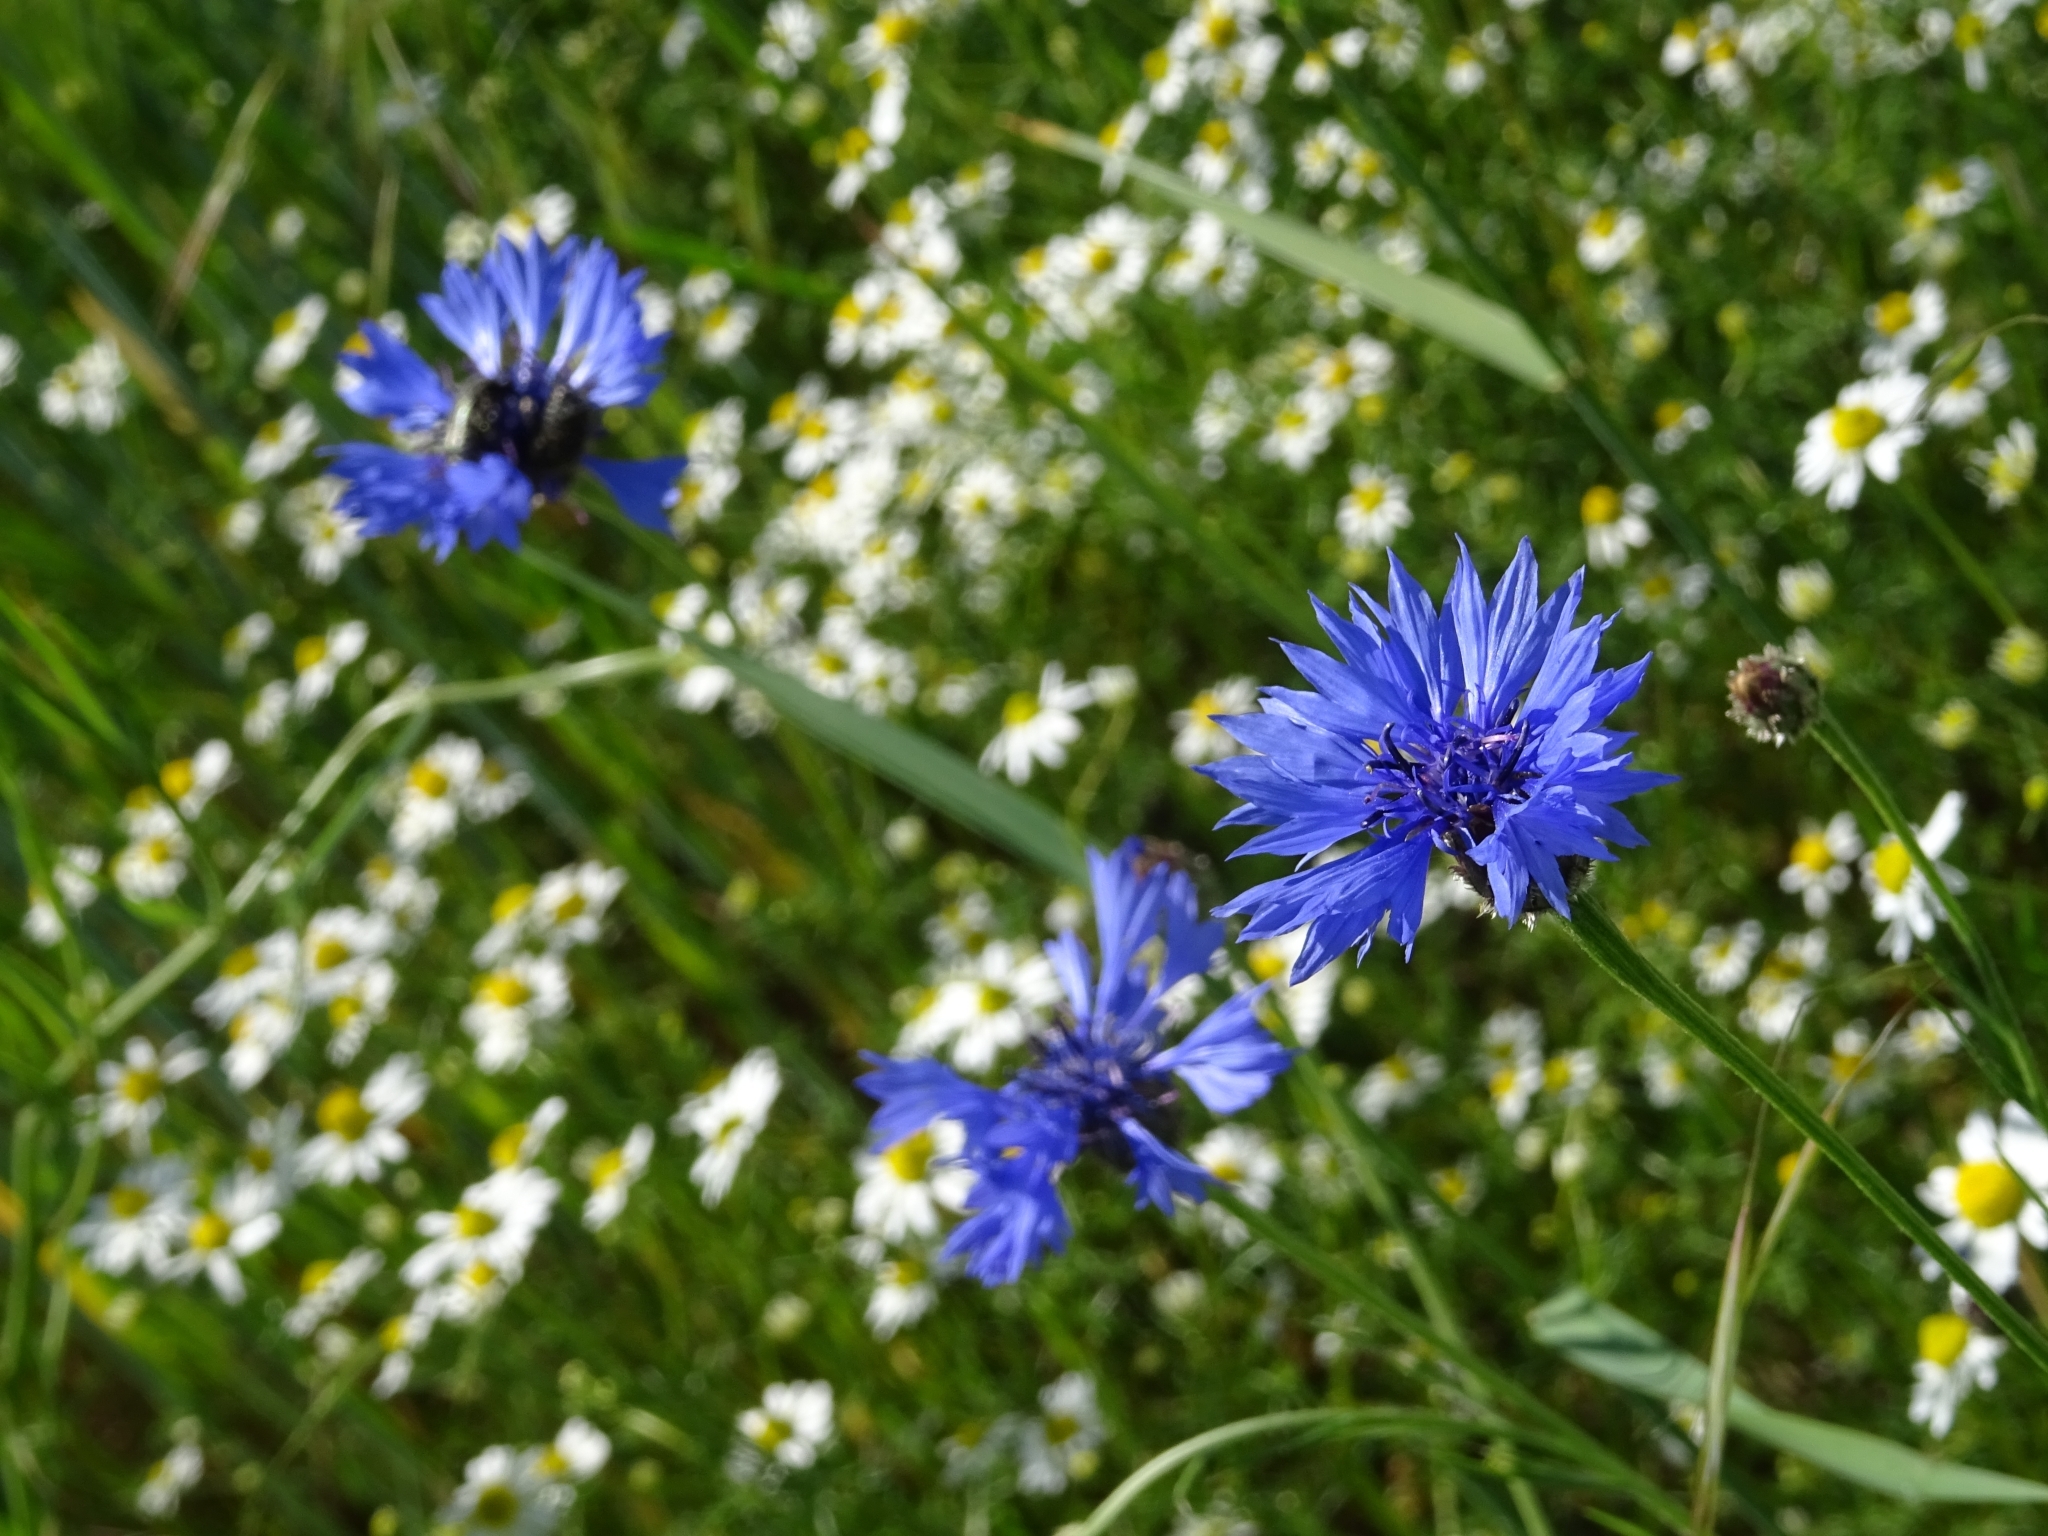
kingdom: Plantae
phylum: Tracheophyta
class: Magnoliopsida
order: Asterales
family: Asteraceae
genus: Centaurea
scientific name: Centaurea cyanus
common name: Cornflower
